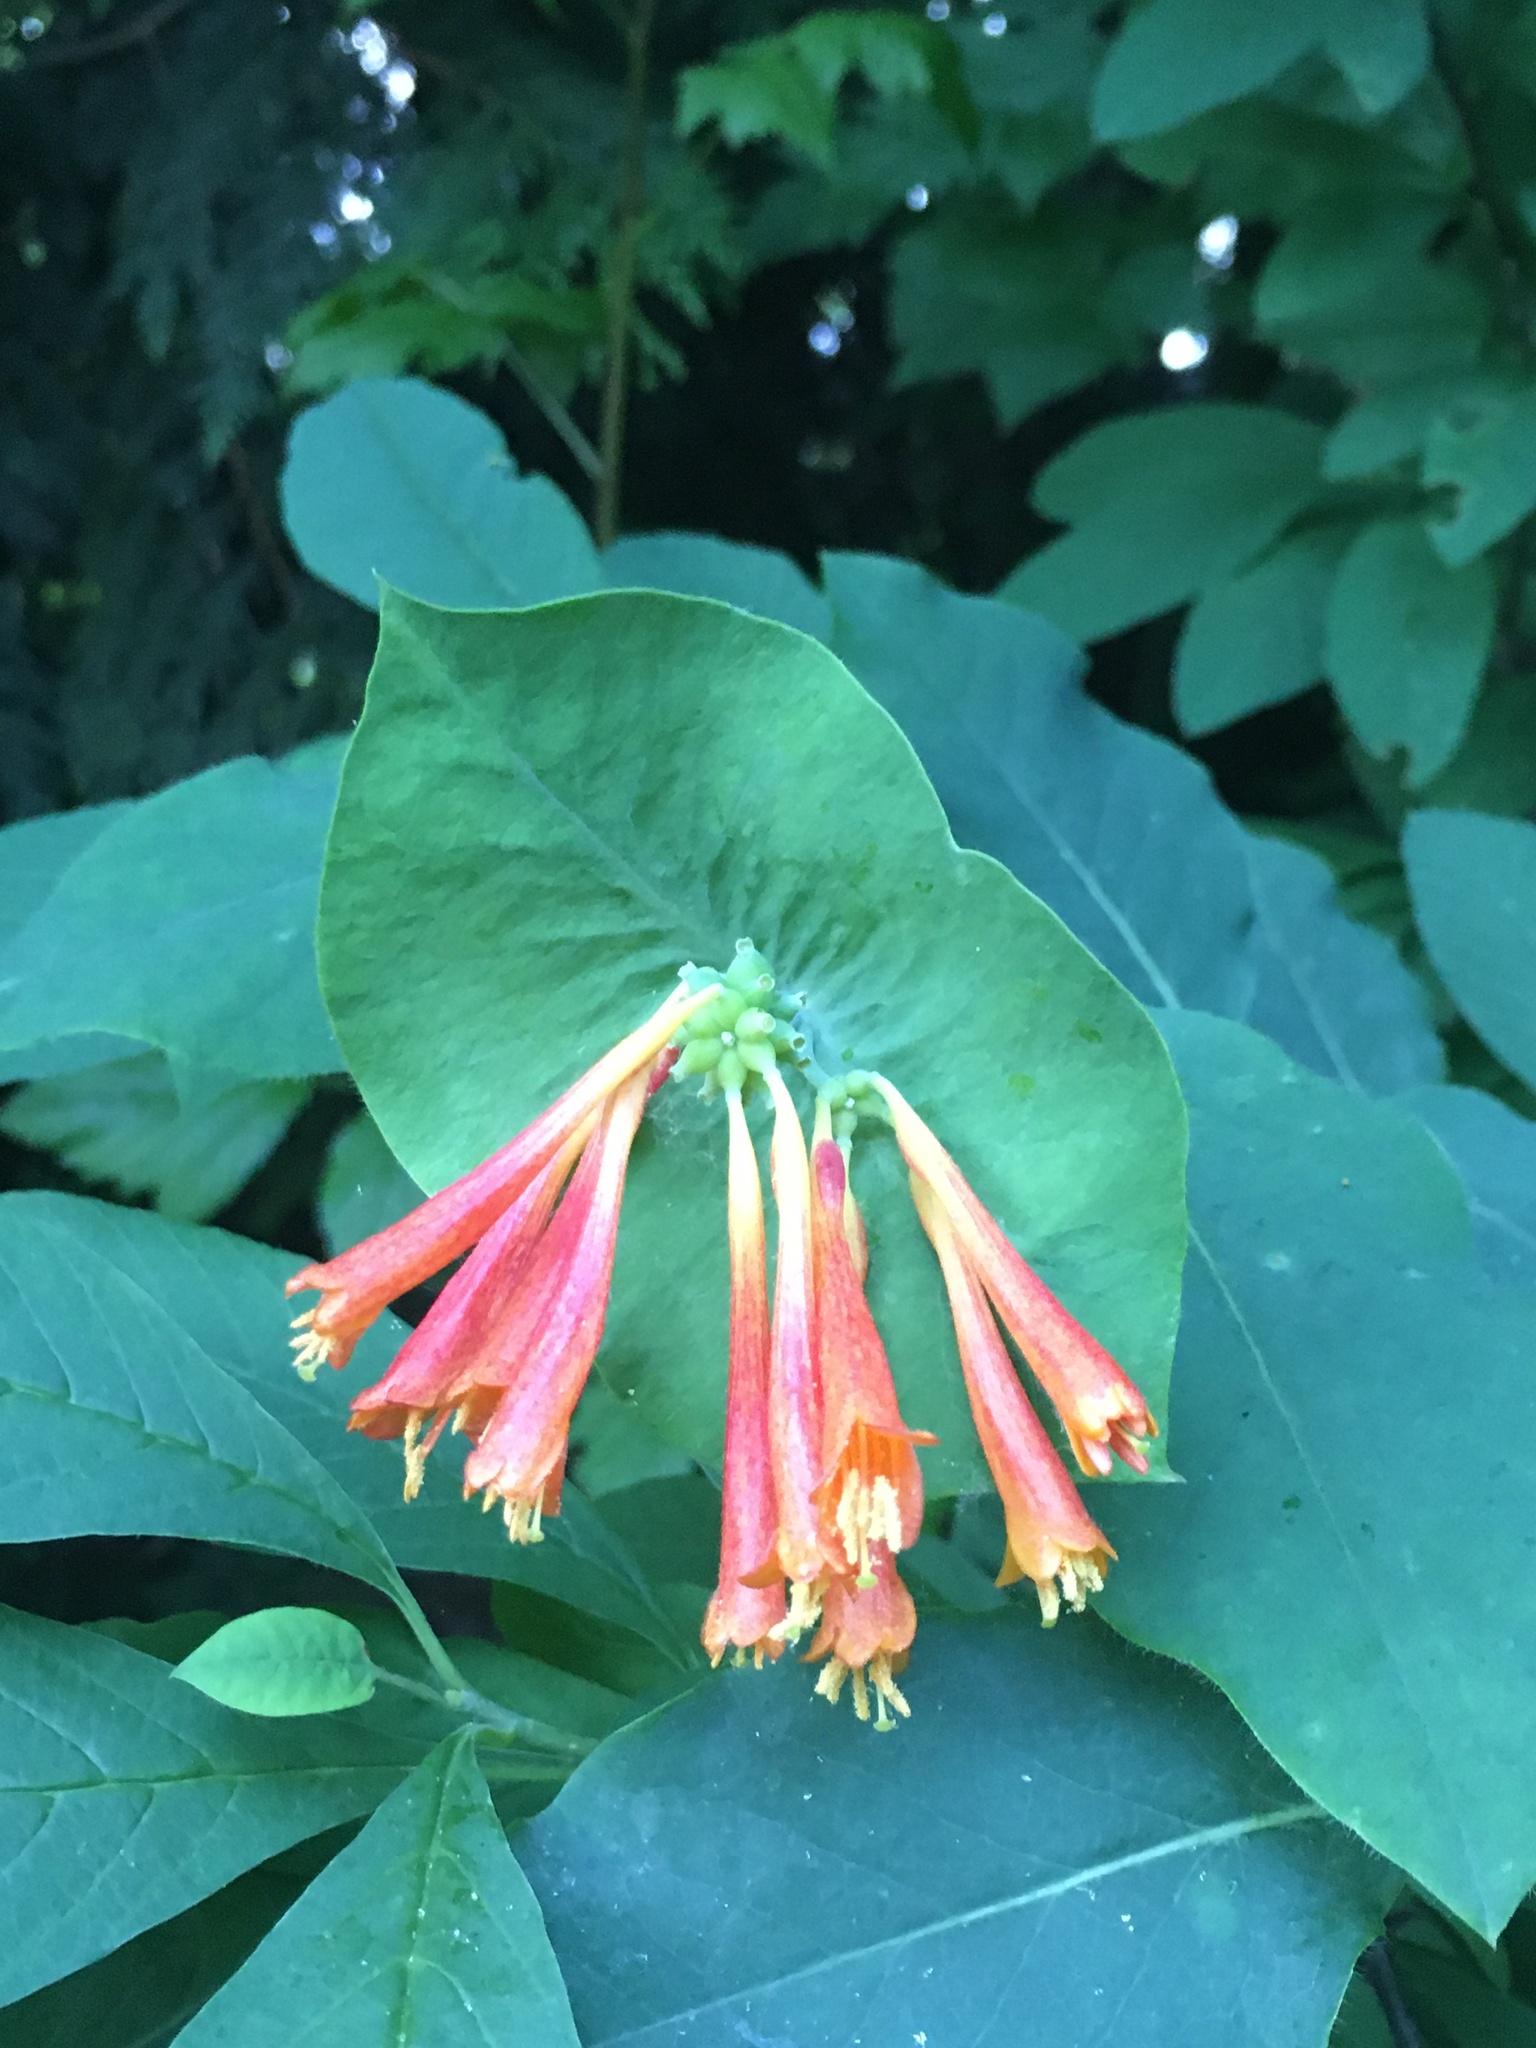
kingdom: Plantae
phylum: Tracheophyta
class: Magnoliopsida
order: Dipsacales
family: Caprifoliaceae
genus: Lonicera
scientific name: Lonicera ciliosa
